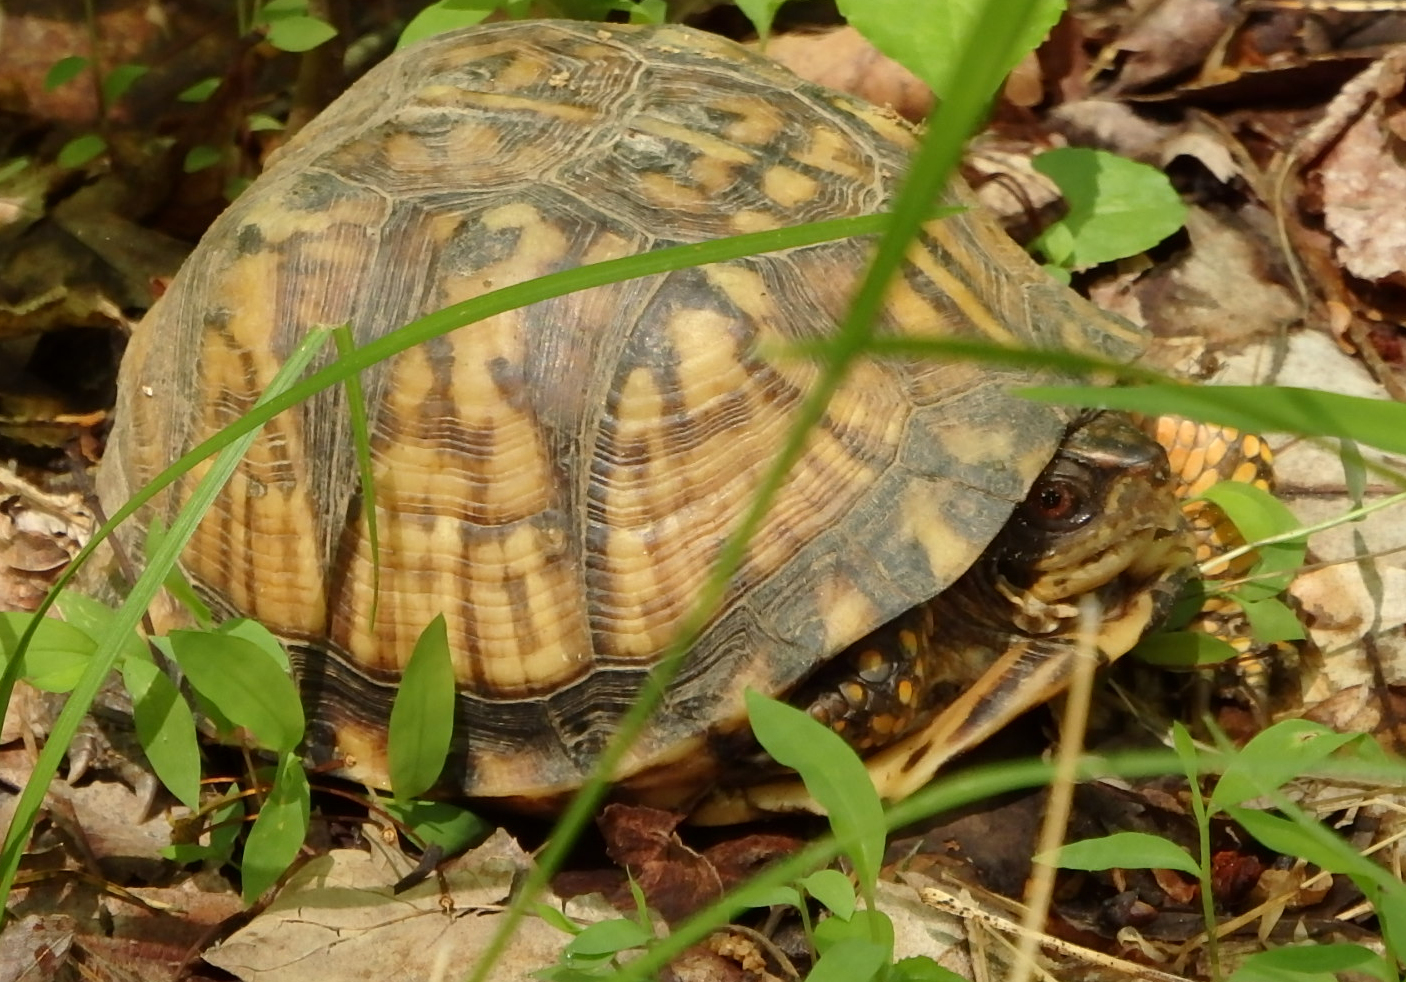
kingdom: Animalia
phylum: Chordata
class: Testudines
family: Emydidae
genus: Terrapene
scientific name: Terrapene carolina
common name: Common box turtle
